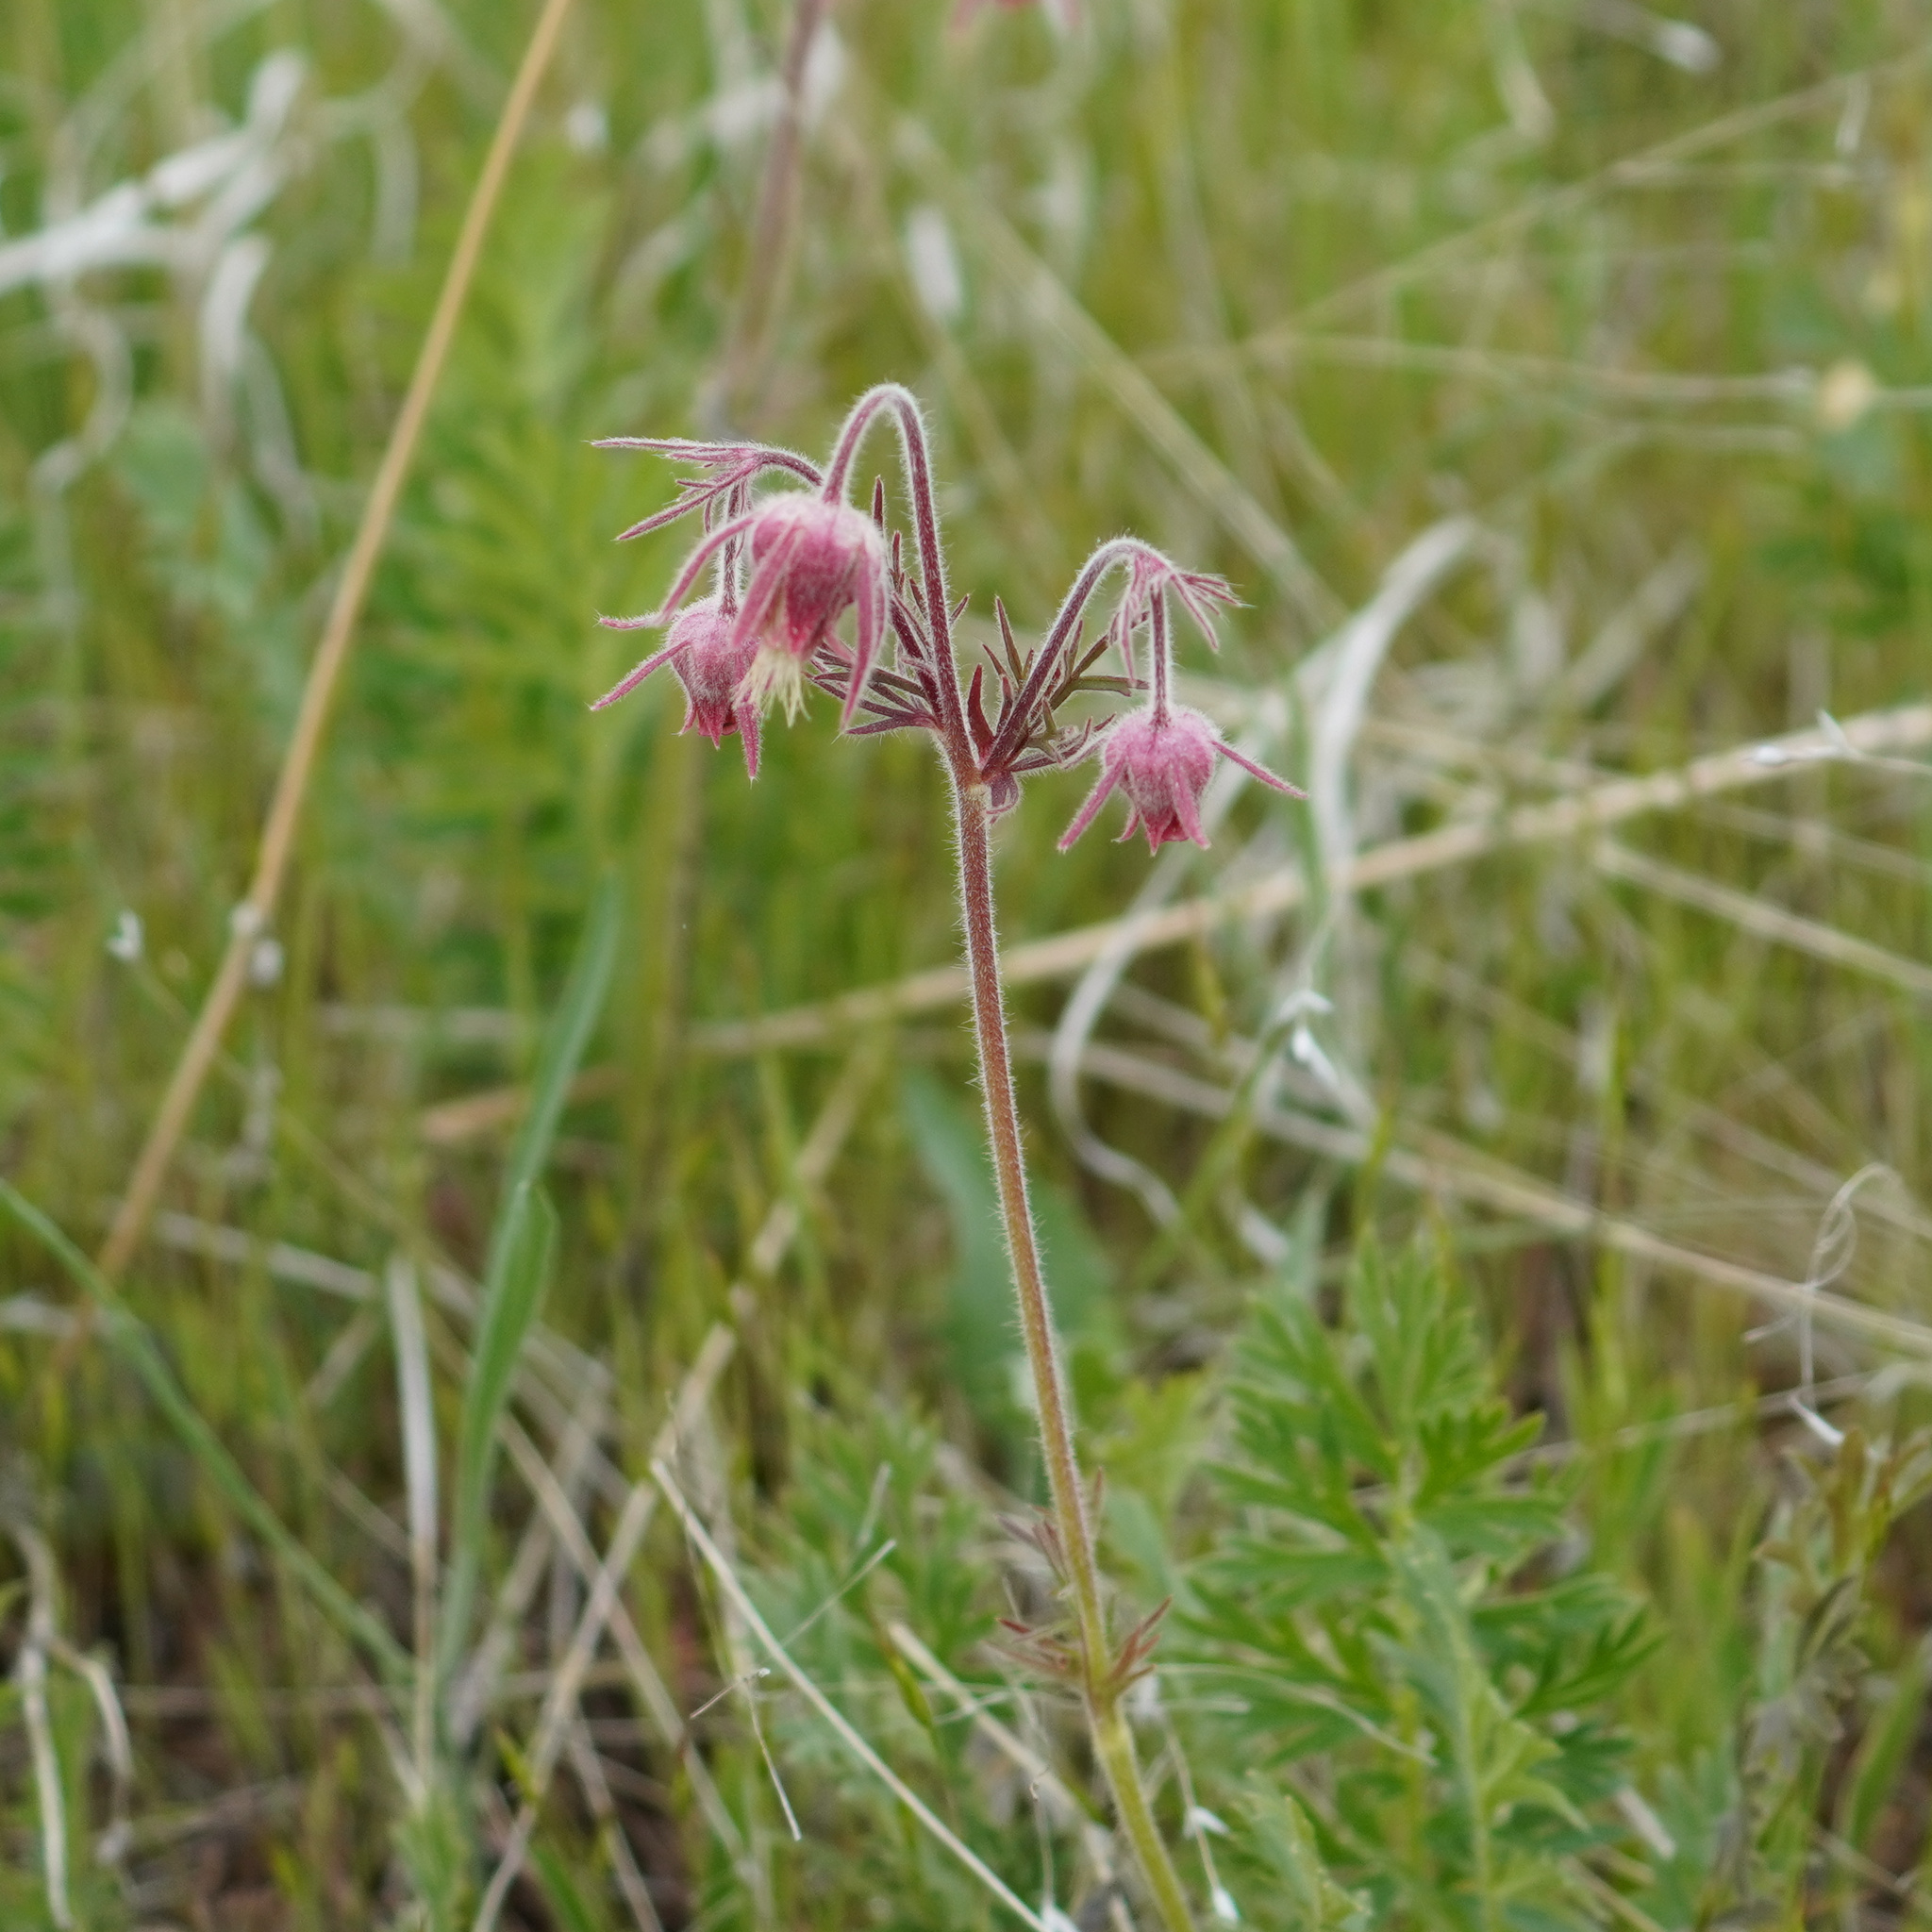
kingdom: Plantae
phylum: Tracheophyta
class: Magnoliopsida
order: Rosales
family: Rosaceae
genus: Geum
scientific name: Geum triflorum
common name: Old man's whiskers
